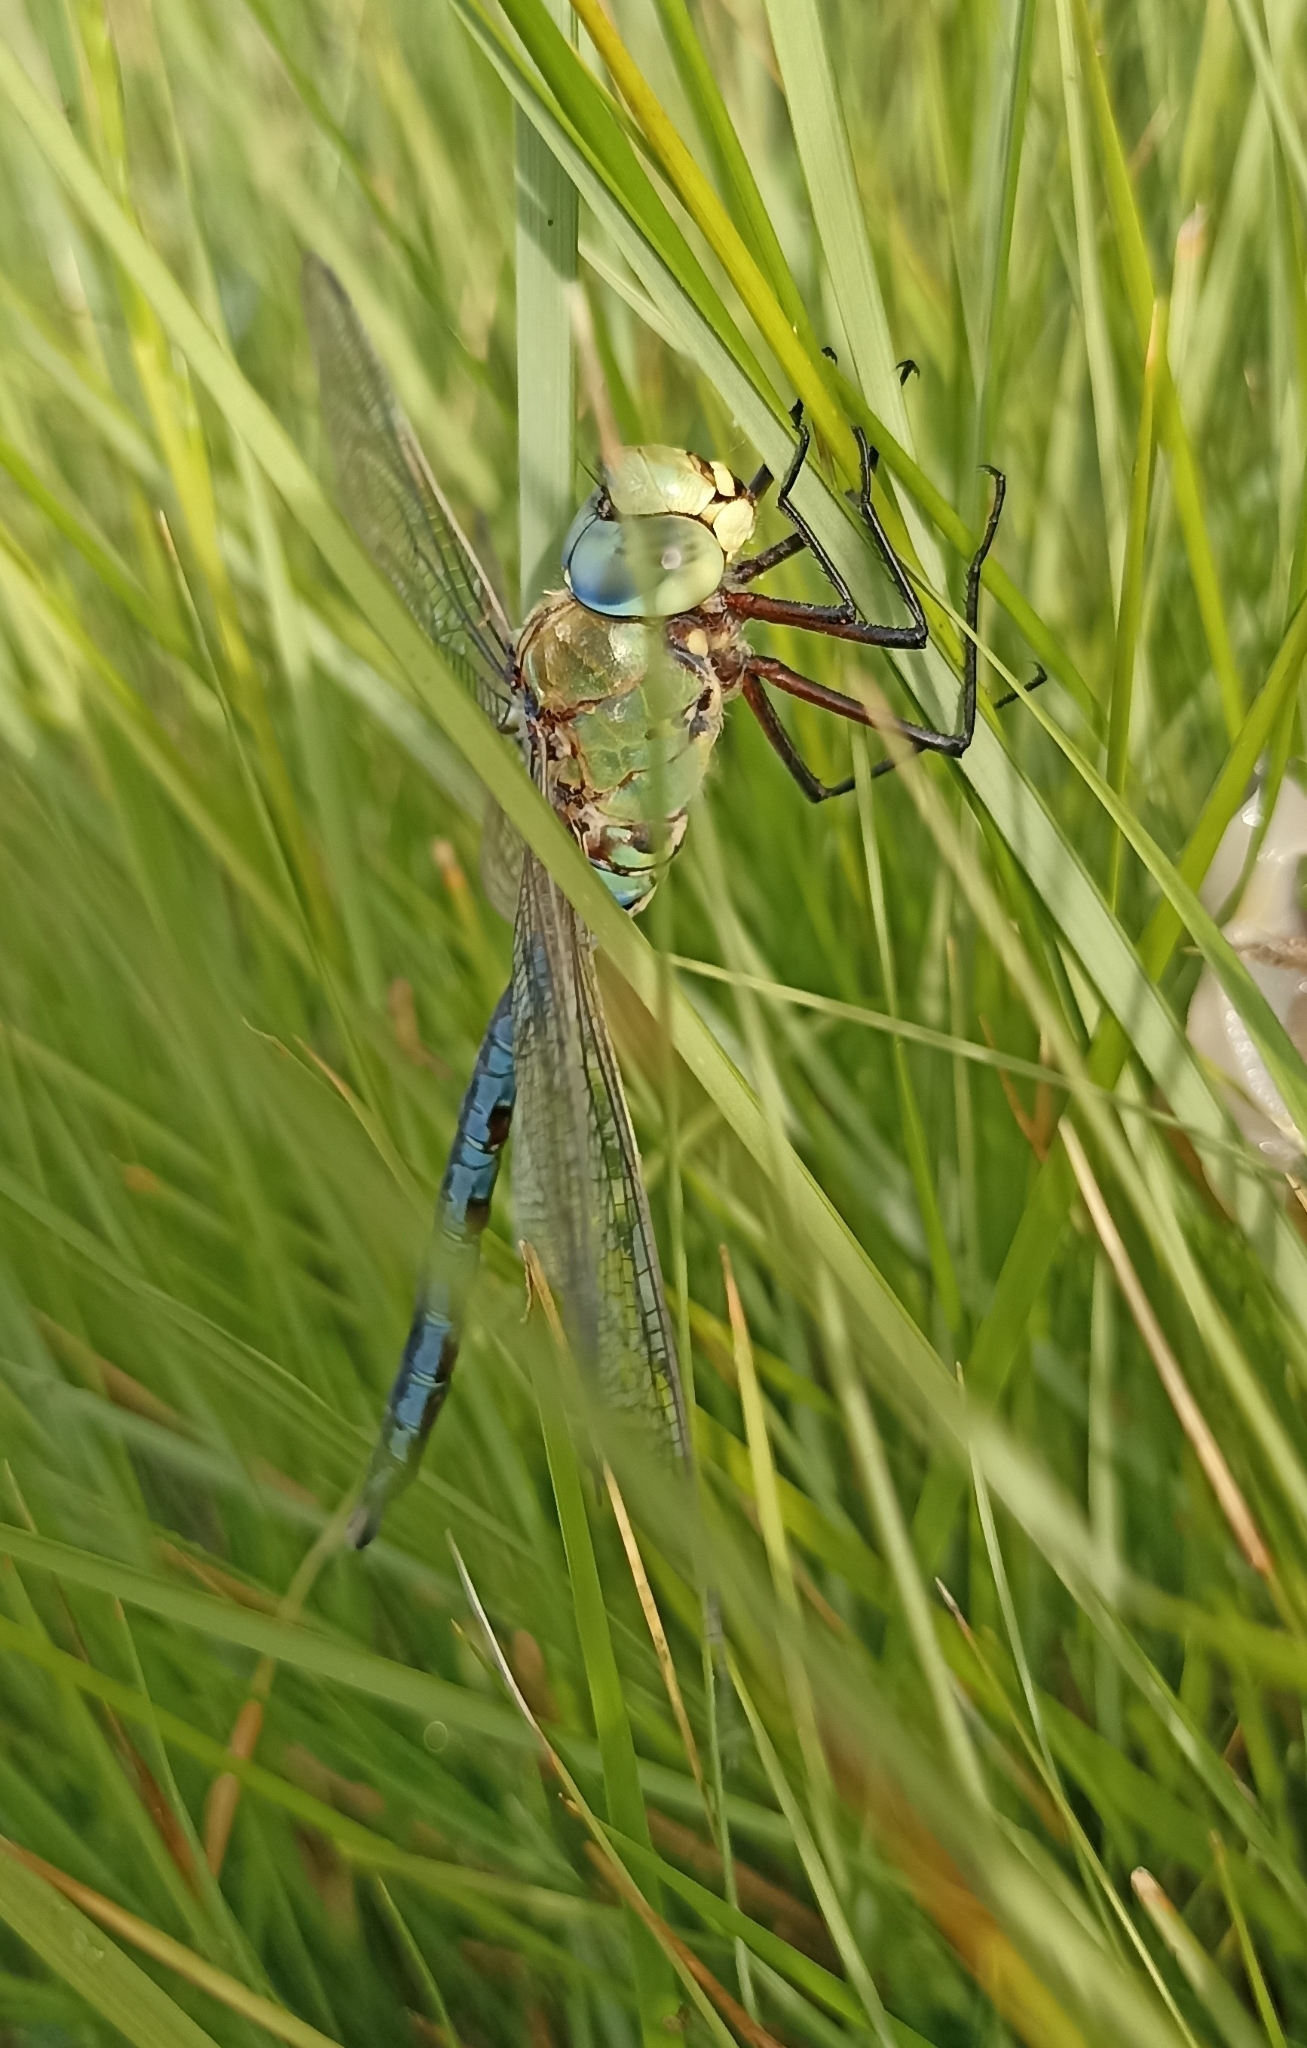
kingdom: Animalia
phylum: Arthropoda
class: Insecta
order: Odonata
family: Aeshnidae
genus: Anax
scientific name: Anax imperator
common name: Emperor dragonfly
